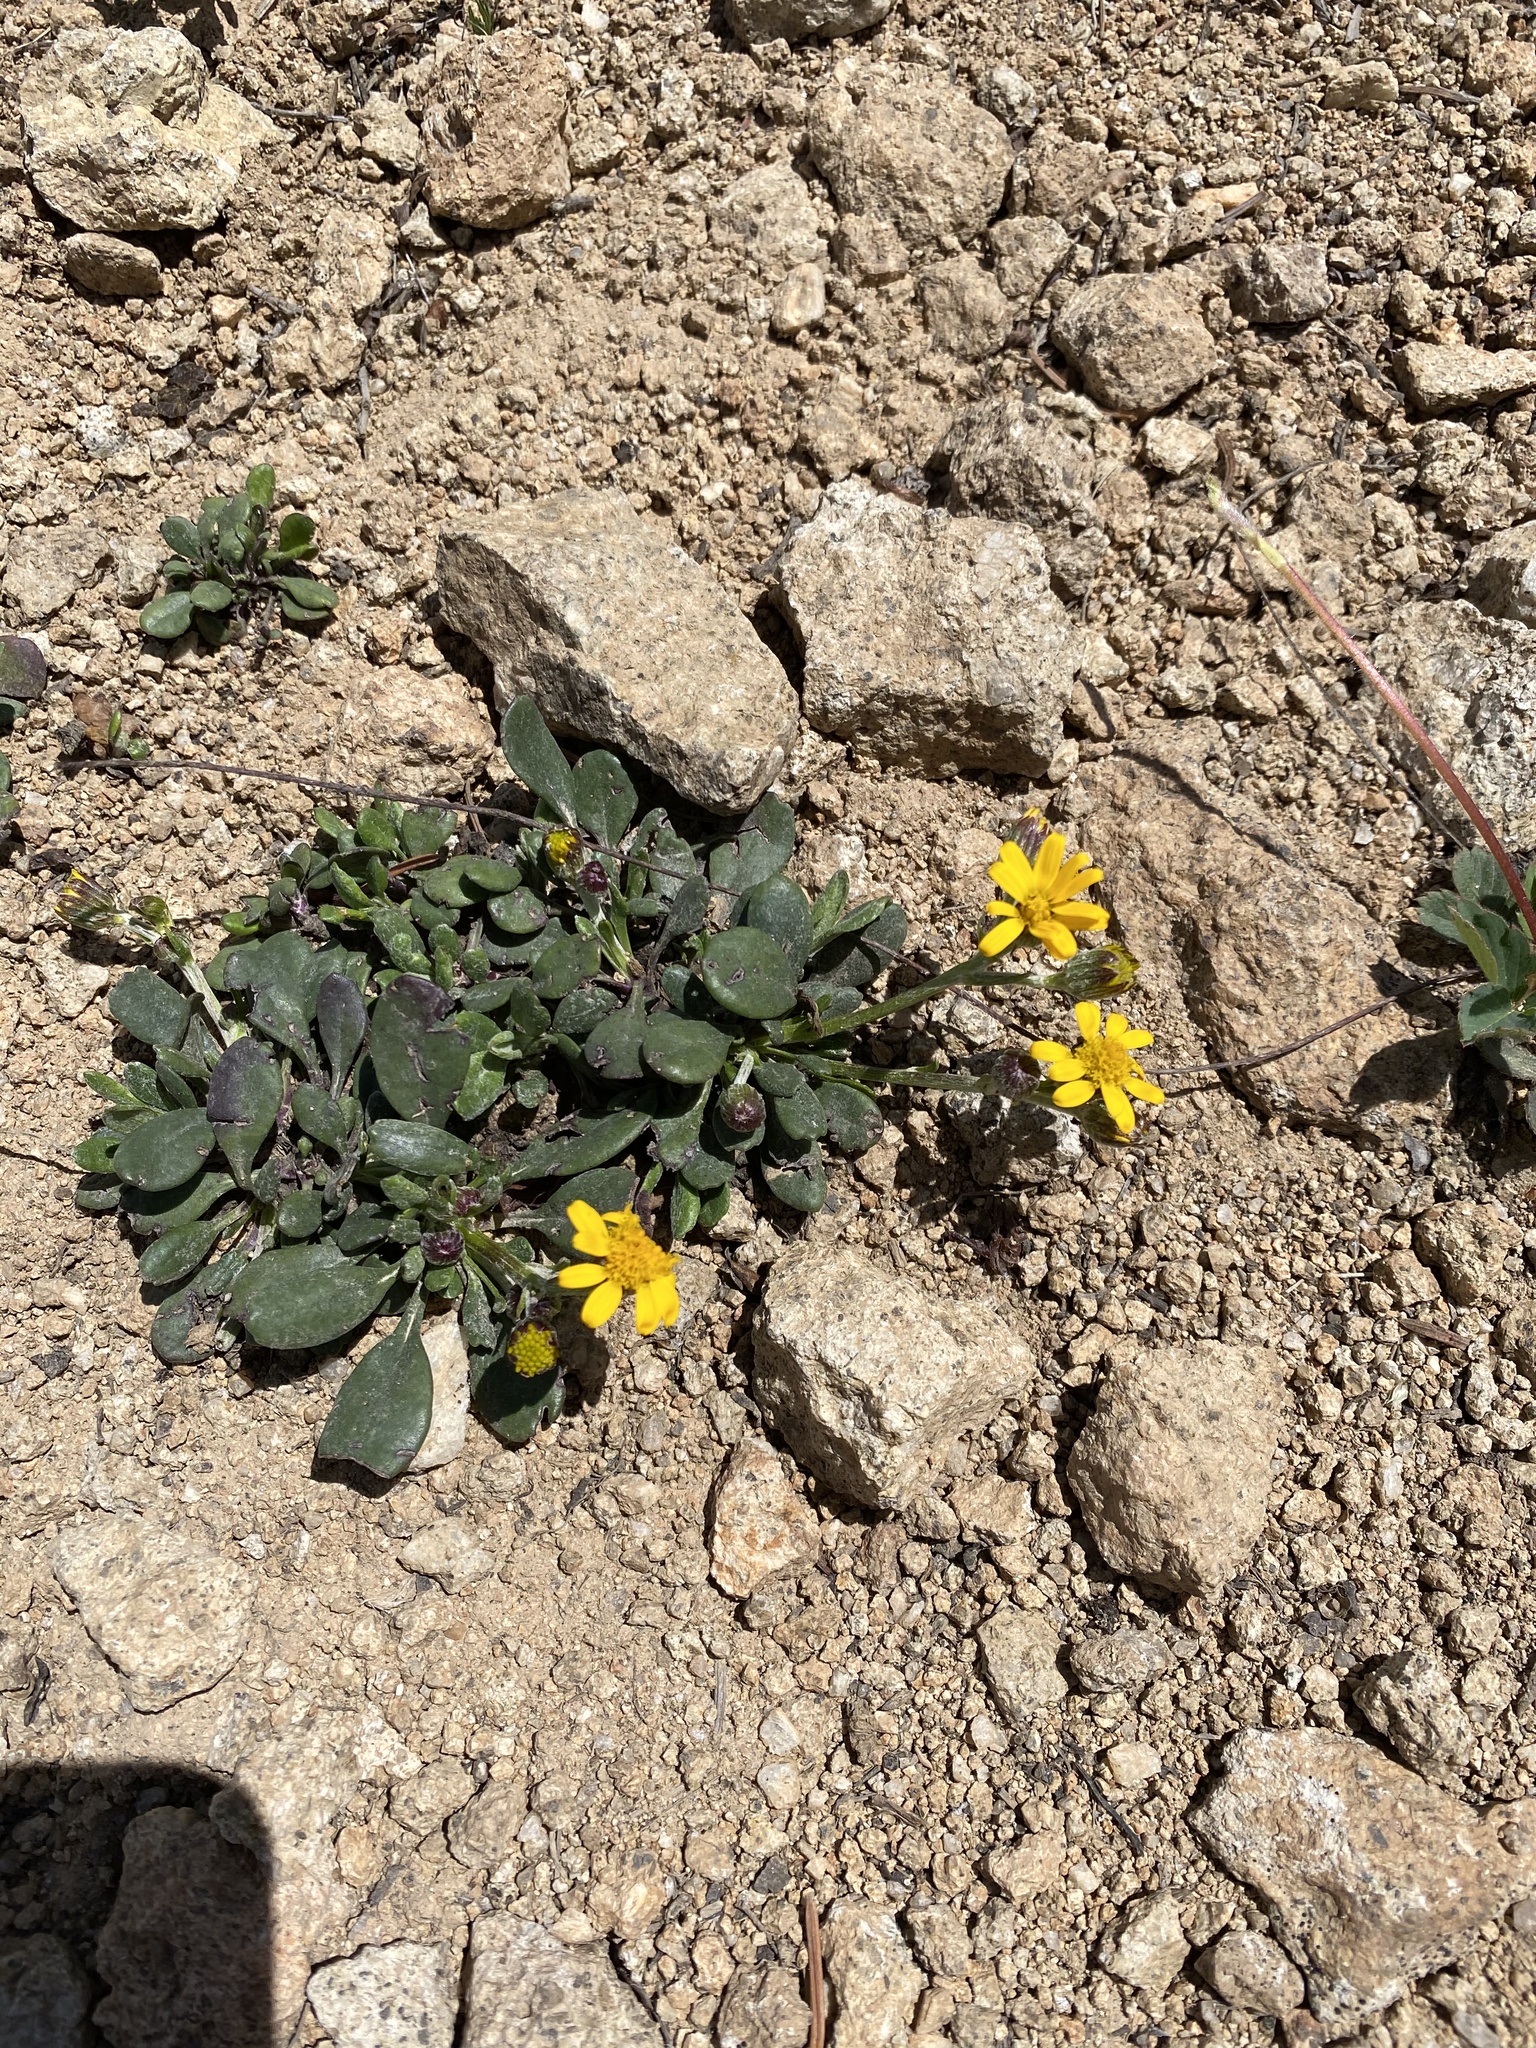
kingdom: Plantae
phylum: Tracheophyta
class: Magnoliopsida
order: Asterales
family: Asteraceae
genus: Packera
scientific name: Packera werneriifolia
